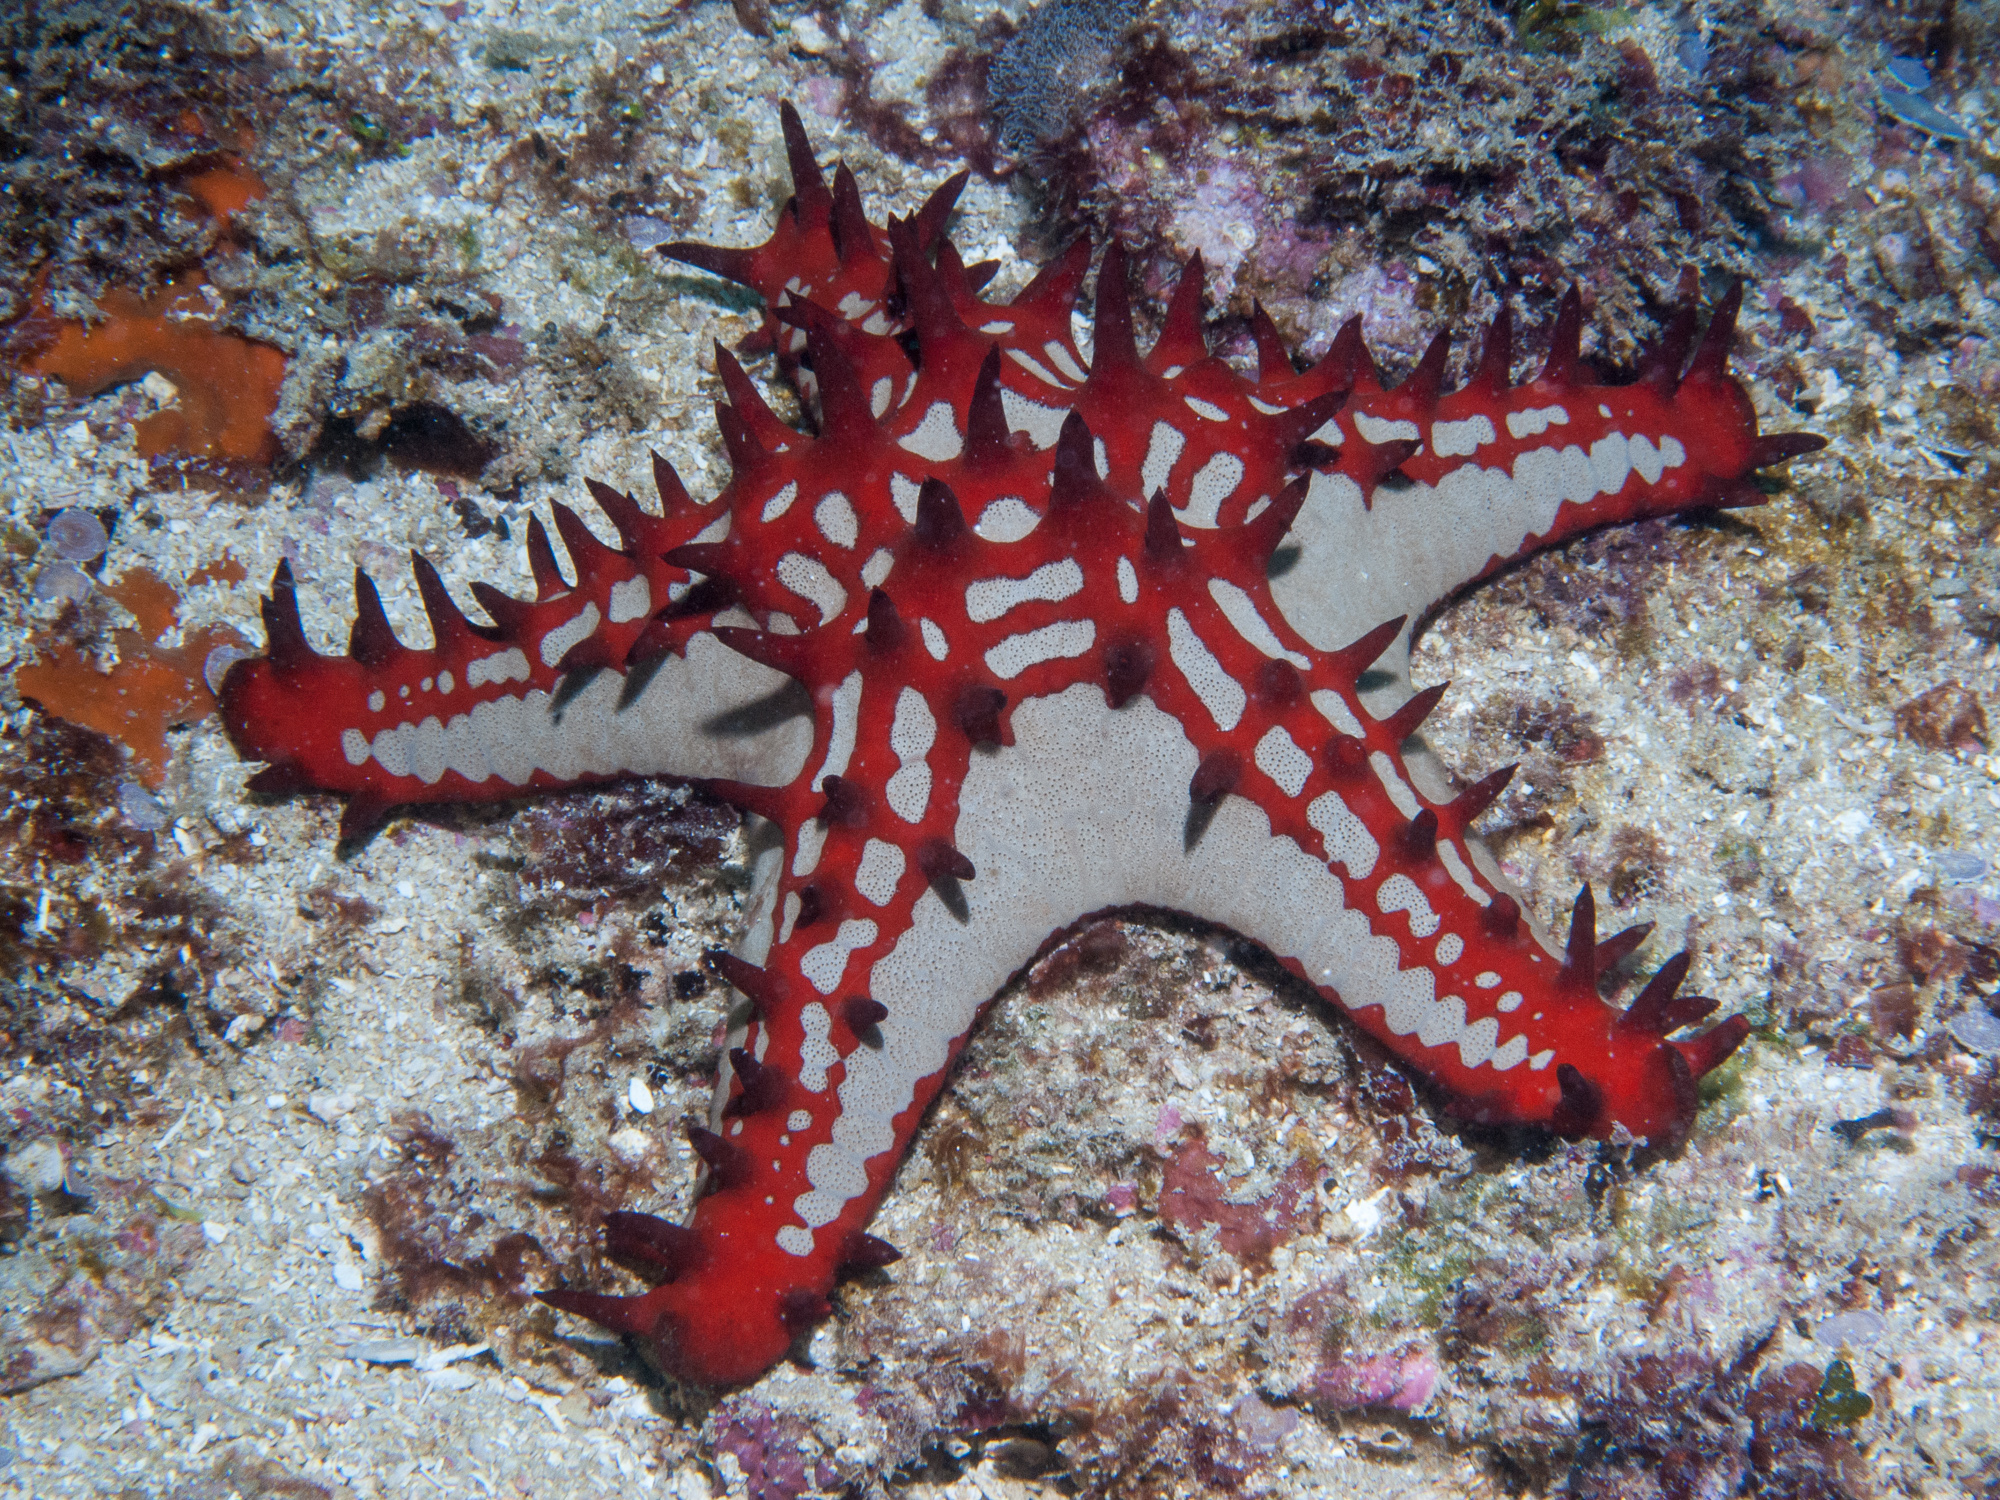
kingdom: Animalia
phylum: Echinodermata
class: Asteroidea
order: Valvatida
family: Oreasteridae
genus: Protoreaster
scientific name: Protoreaster lincki
